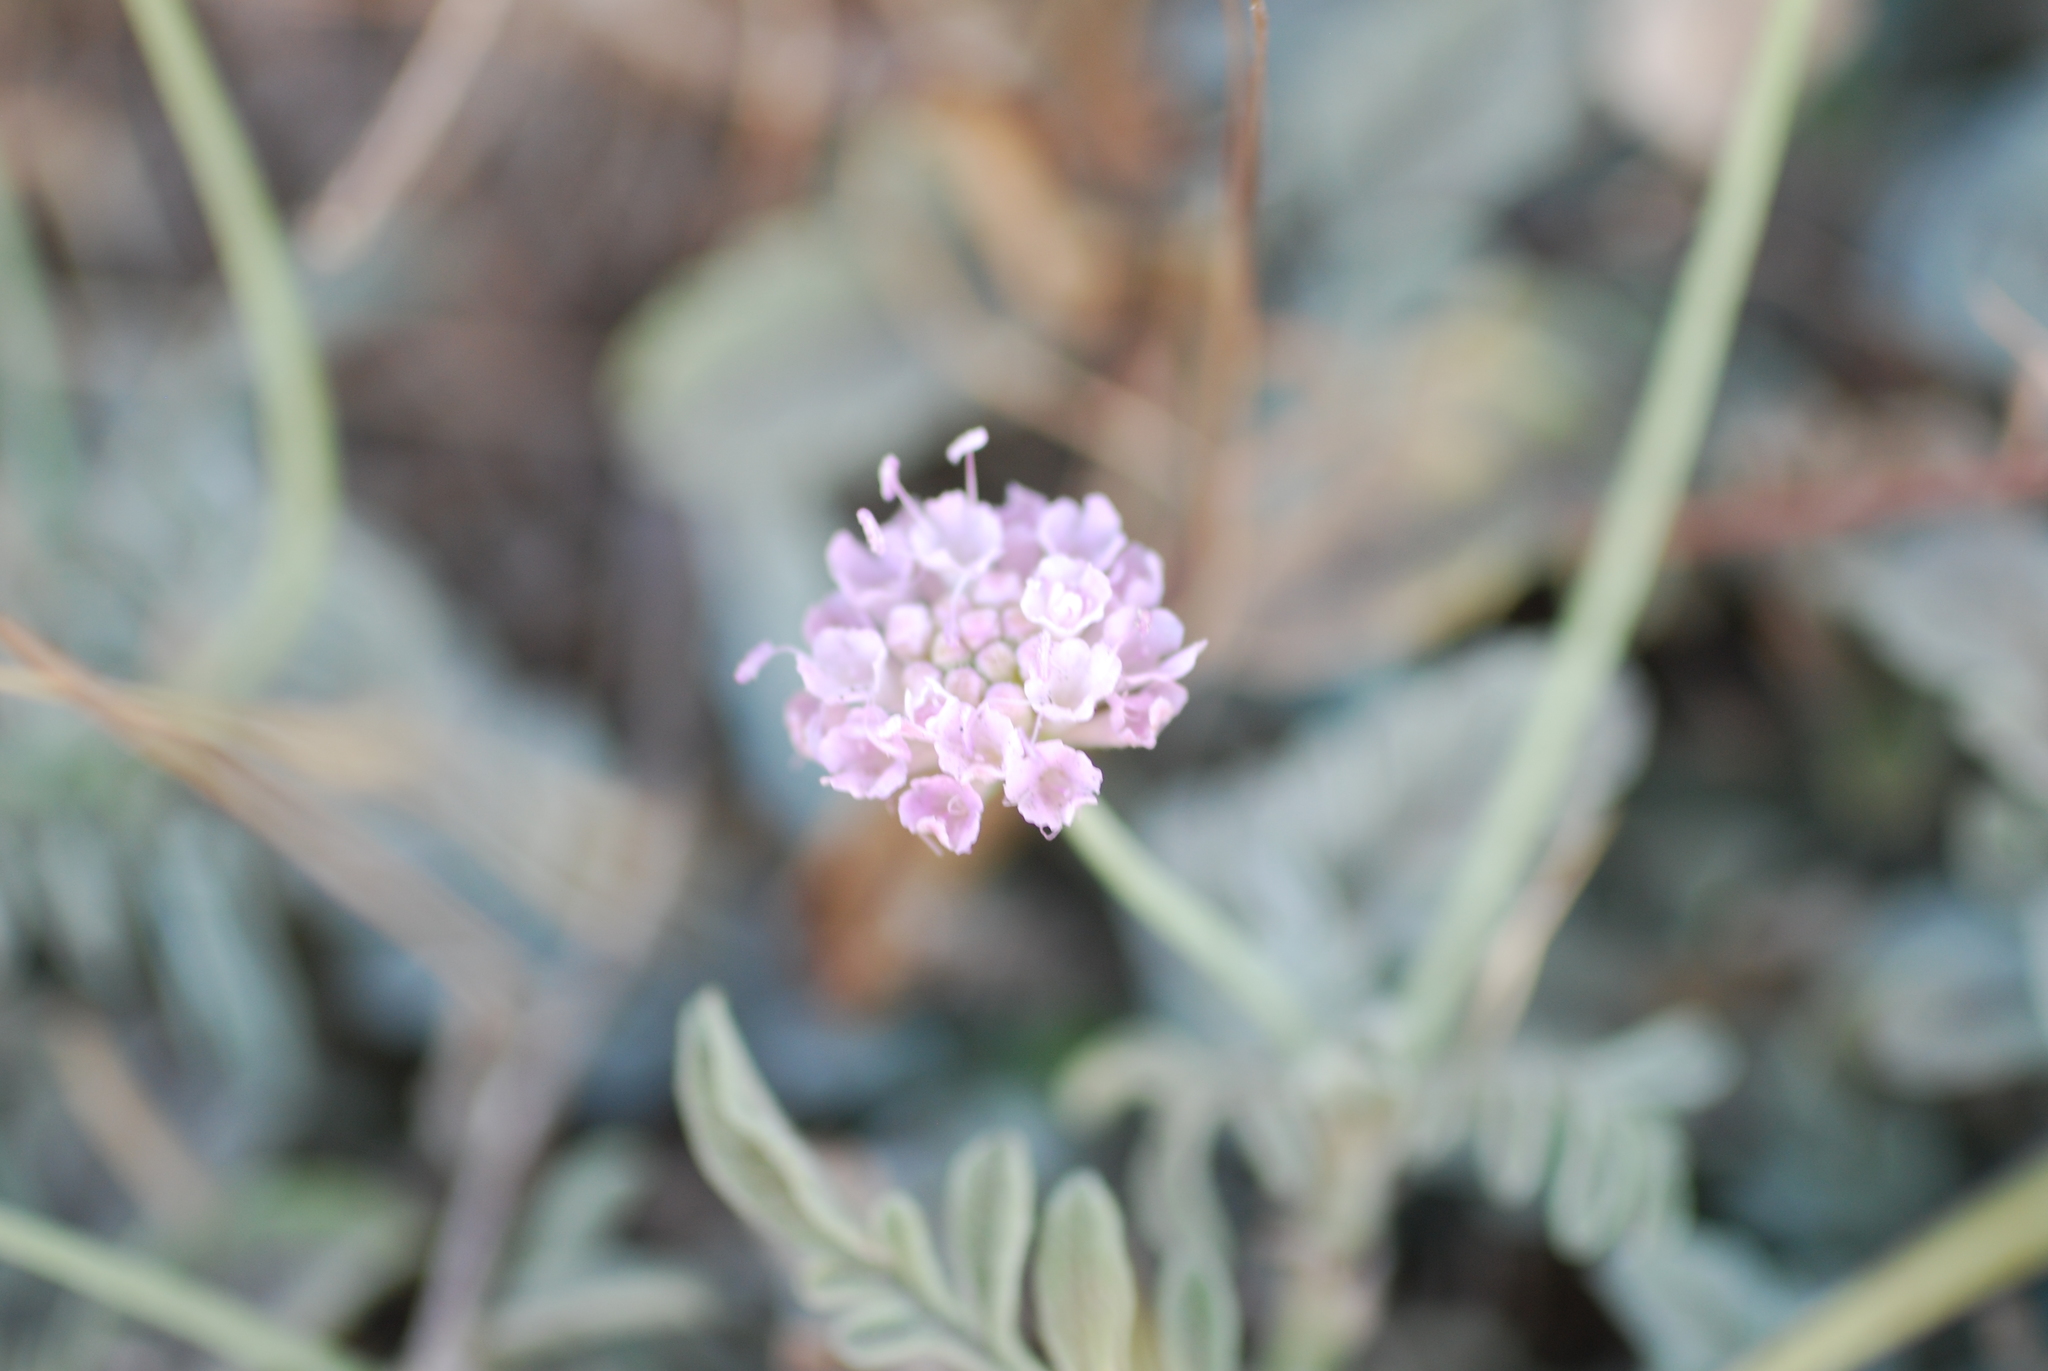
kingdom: Plantae
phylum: Tracheophyta
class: Magnoliopsida
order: Dipsacales
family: Caprifoliaceae
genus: Scabiosa
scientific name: Scabiosa holosericea
